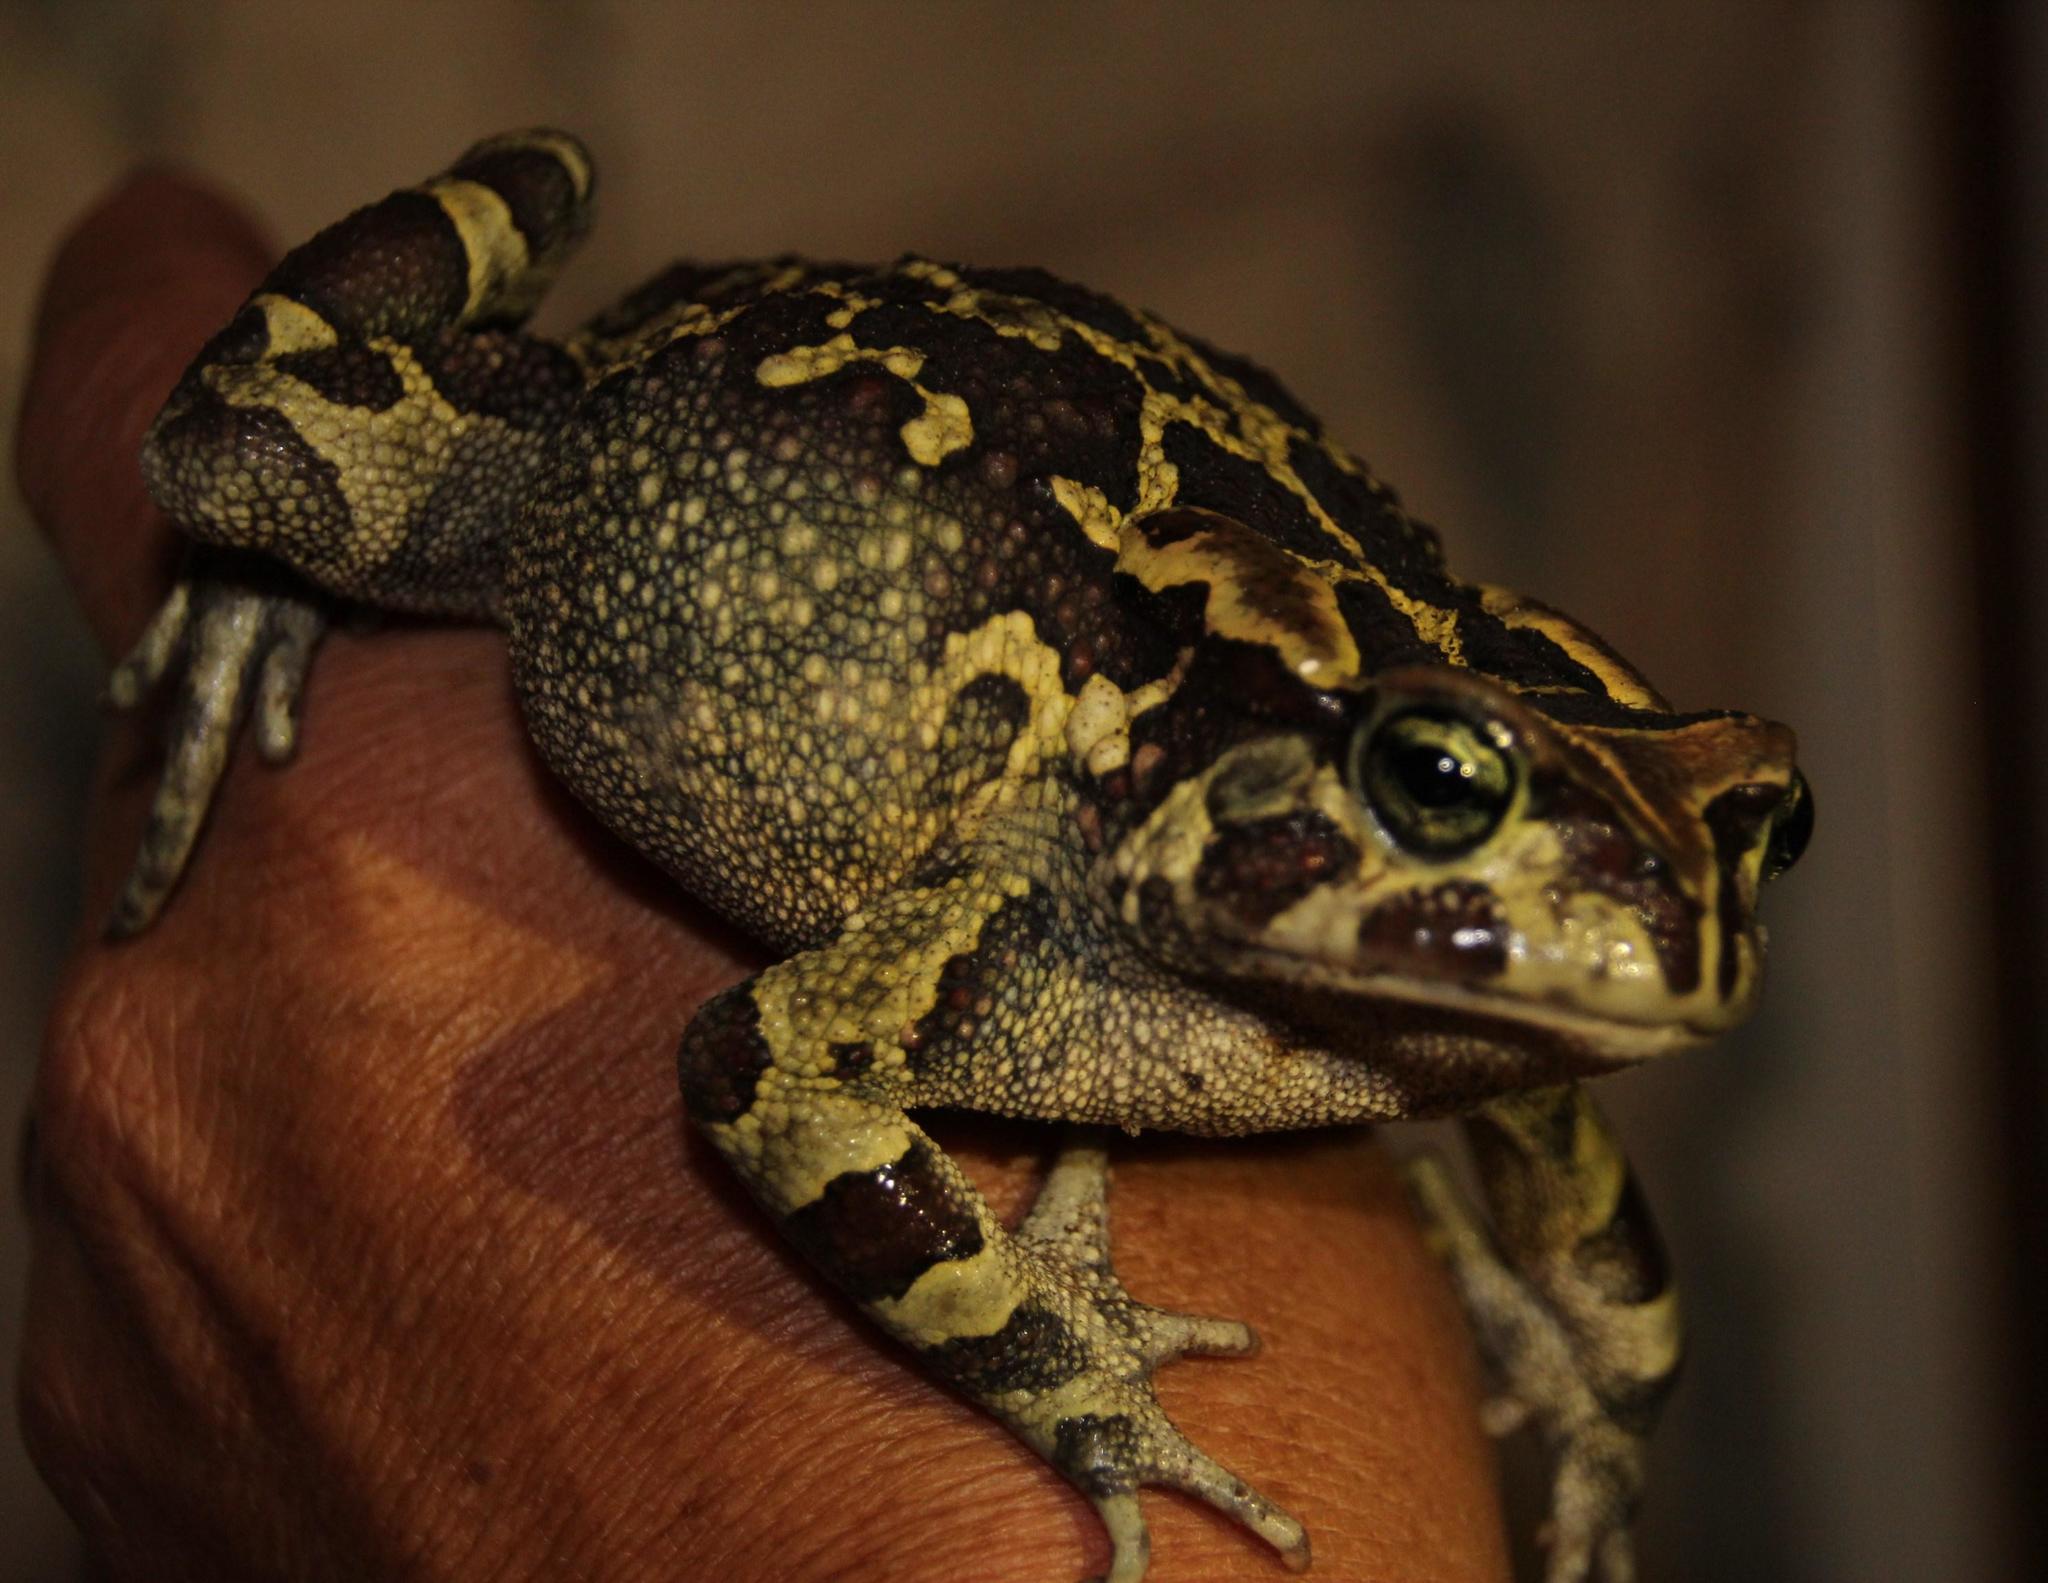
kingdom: Animalia
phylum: Chordata
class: Amphibia
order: Anura
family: Bufonidae
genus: Sclerophrys
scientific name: Sclerophrys pantherina
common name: Panther toad
